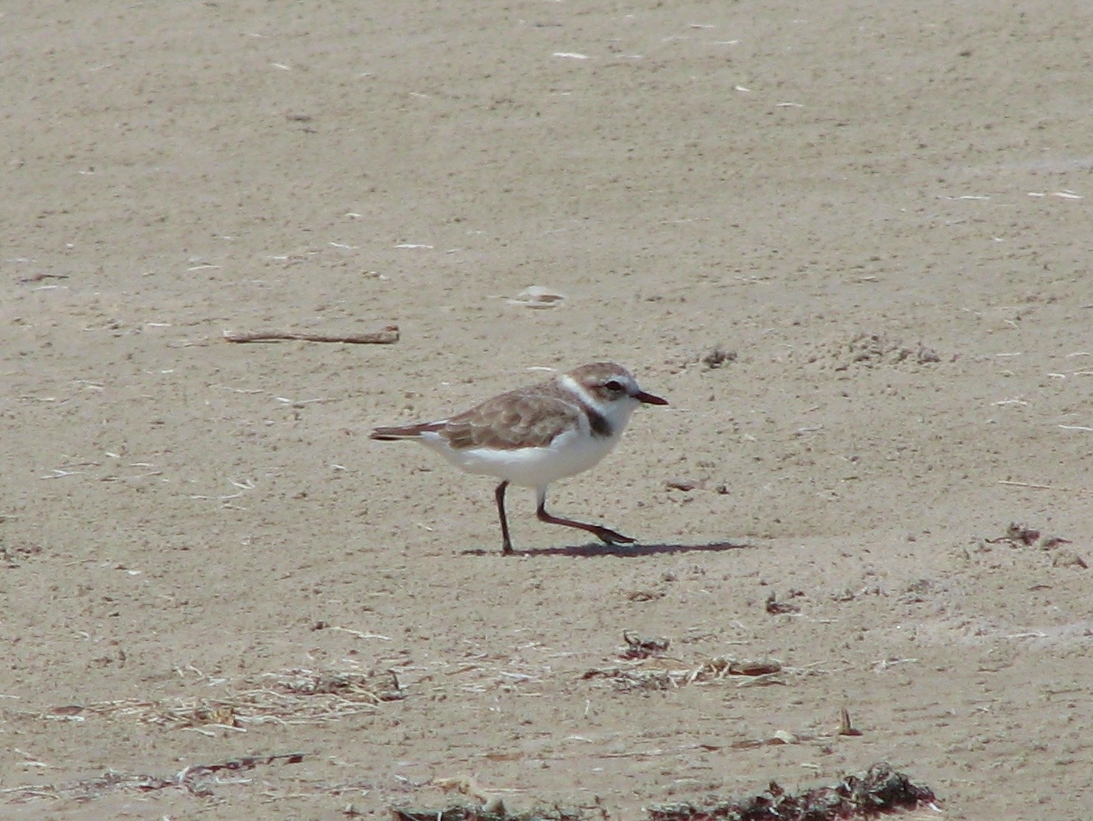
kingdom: Animalia
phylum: Chordata
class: Aves
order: Charadriiformes
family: Charadriidae
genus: Anarhynchus
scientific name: Anarhynchus
